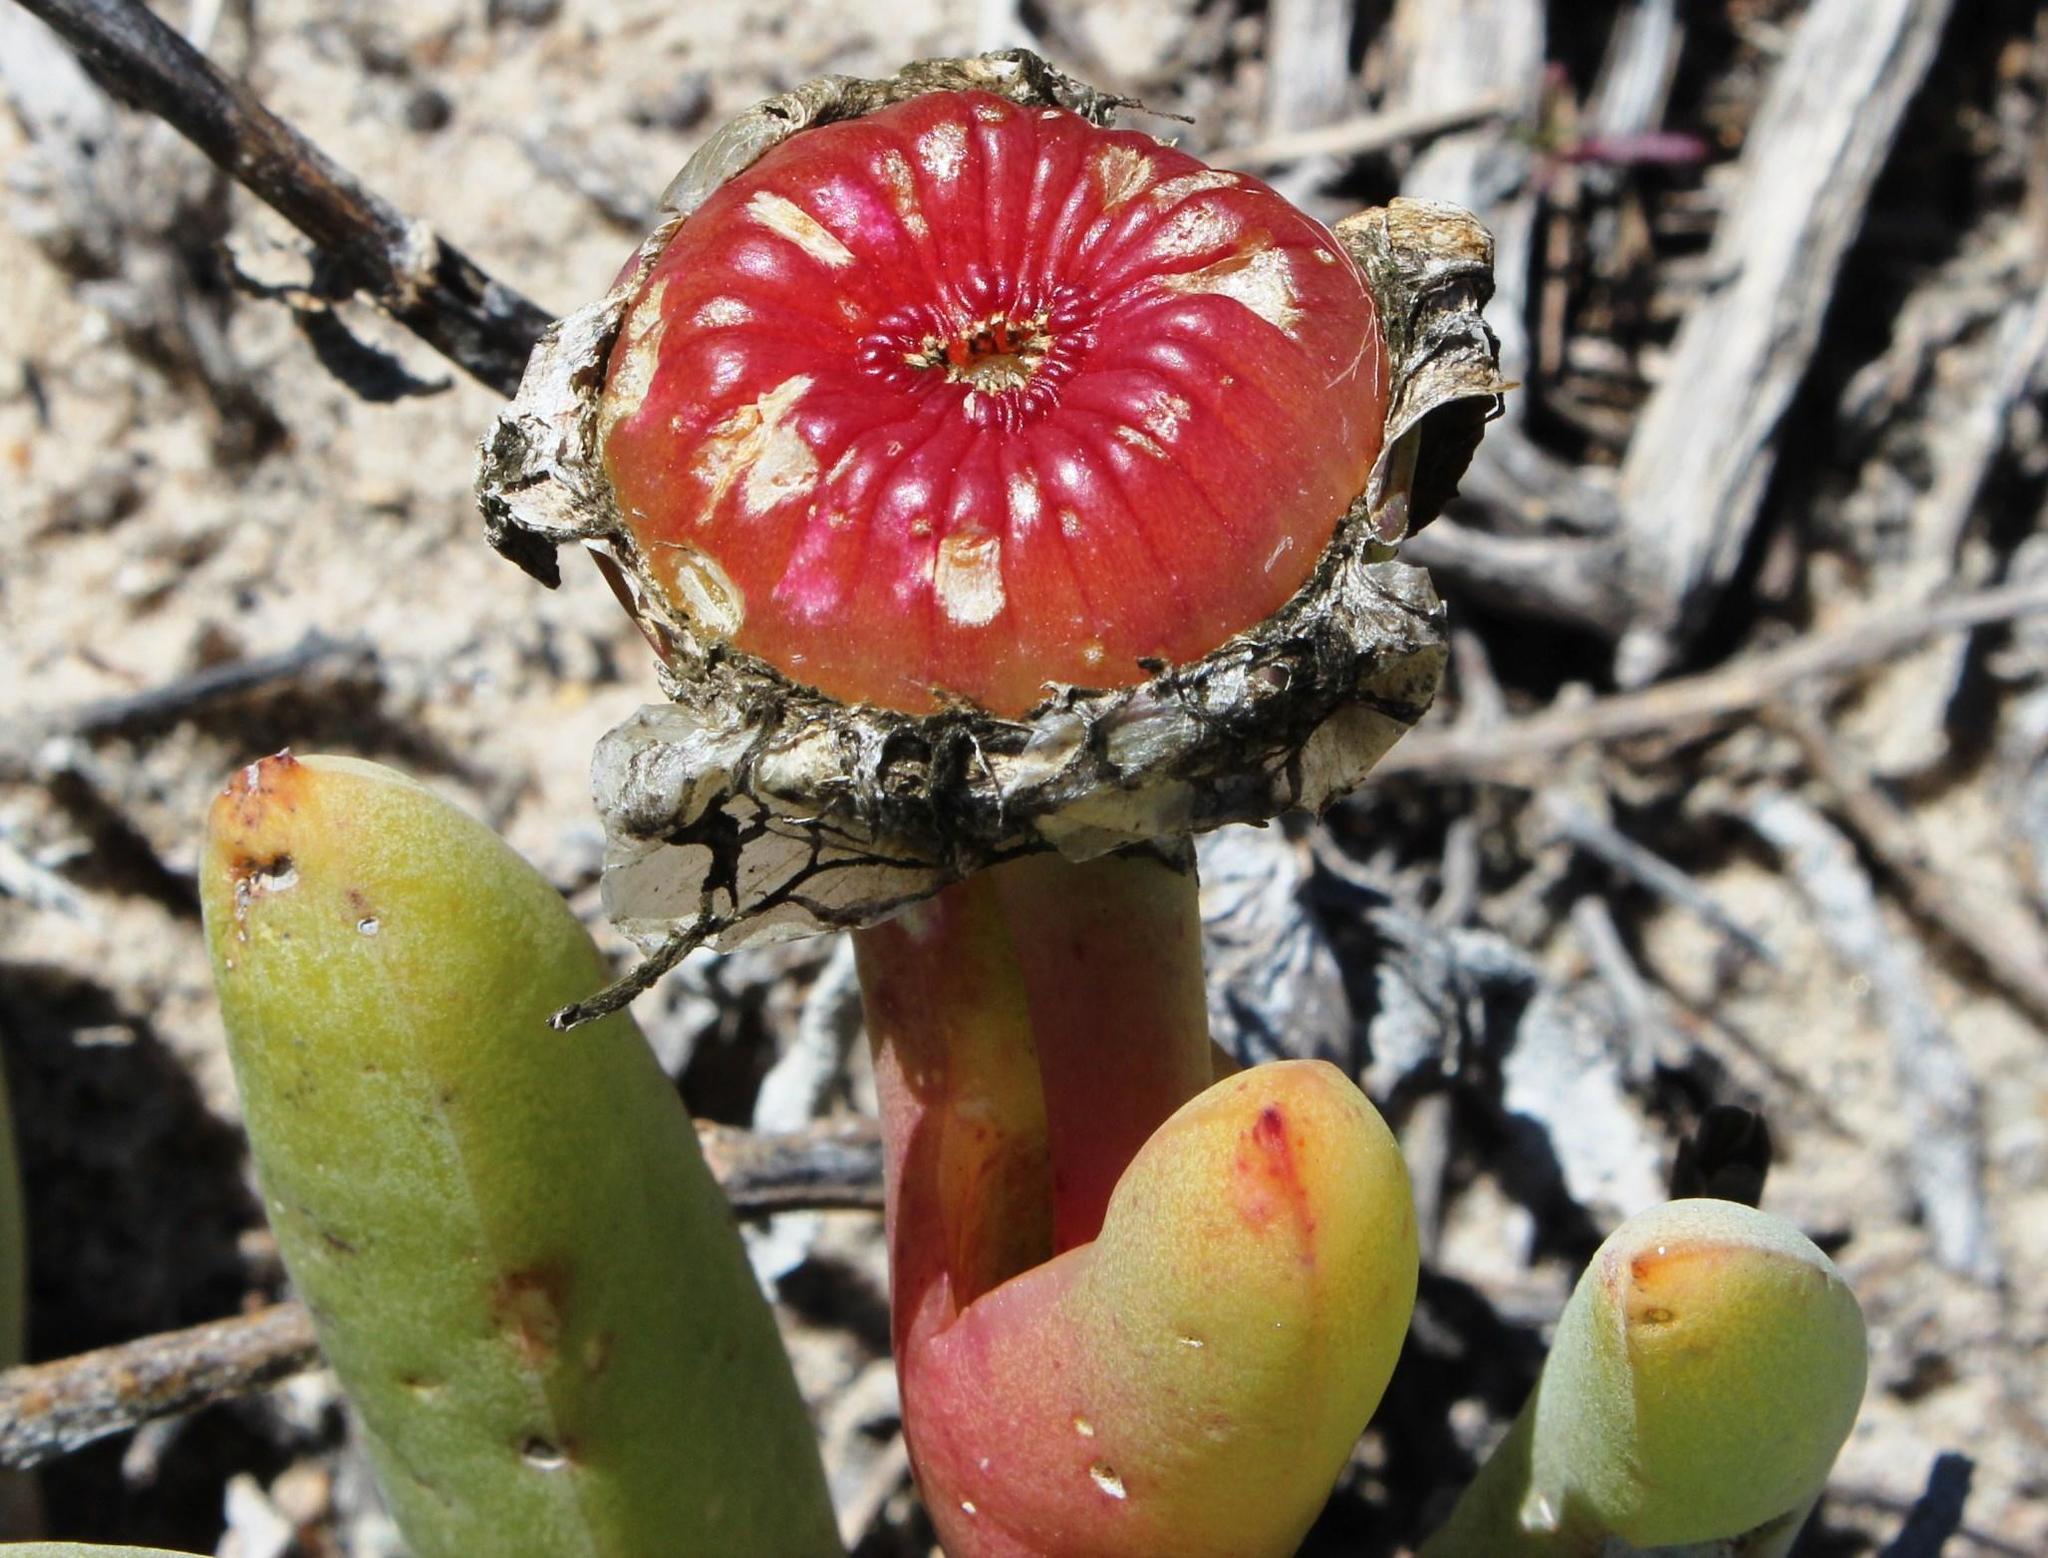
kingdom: Plantae
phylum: Tracheophyta
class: Magnoliopsida
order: Caryophyllales
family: Aizoaceae
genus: Jordaaniella
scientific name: Jordaaniella spongiosa
